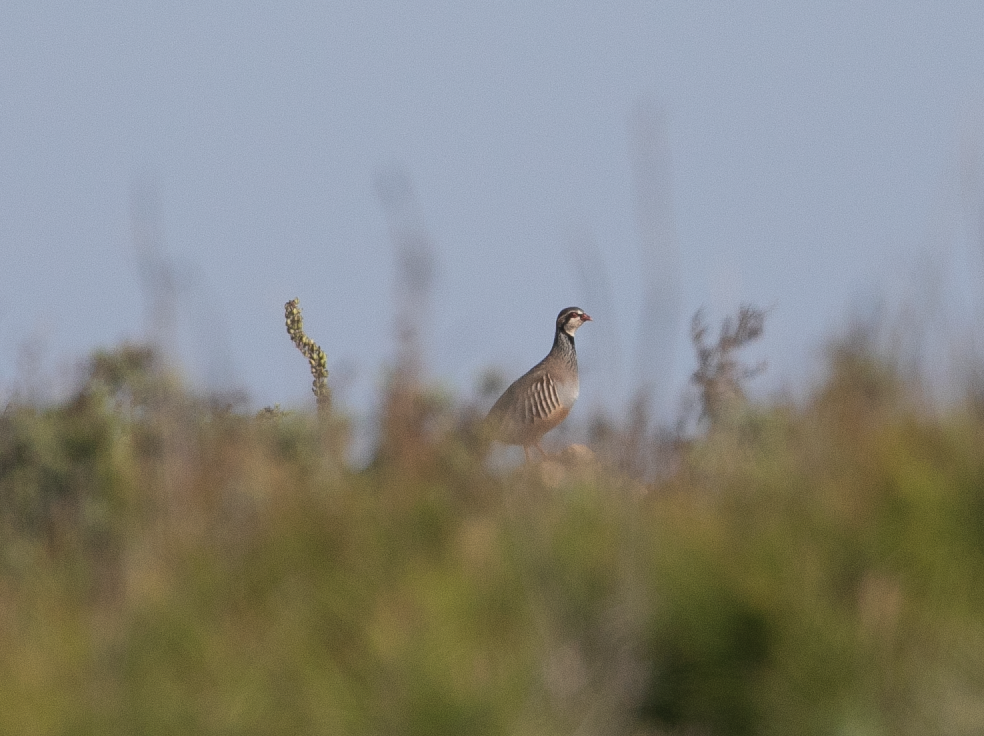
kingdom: Animalia
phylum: Chordata
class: Aves
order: Galliformes
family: Phasianidae
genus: Alectoris
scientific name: Alectoris rufa
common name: Red-legged partridge
